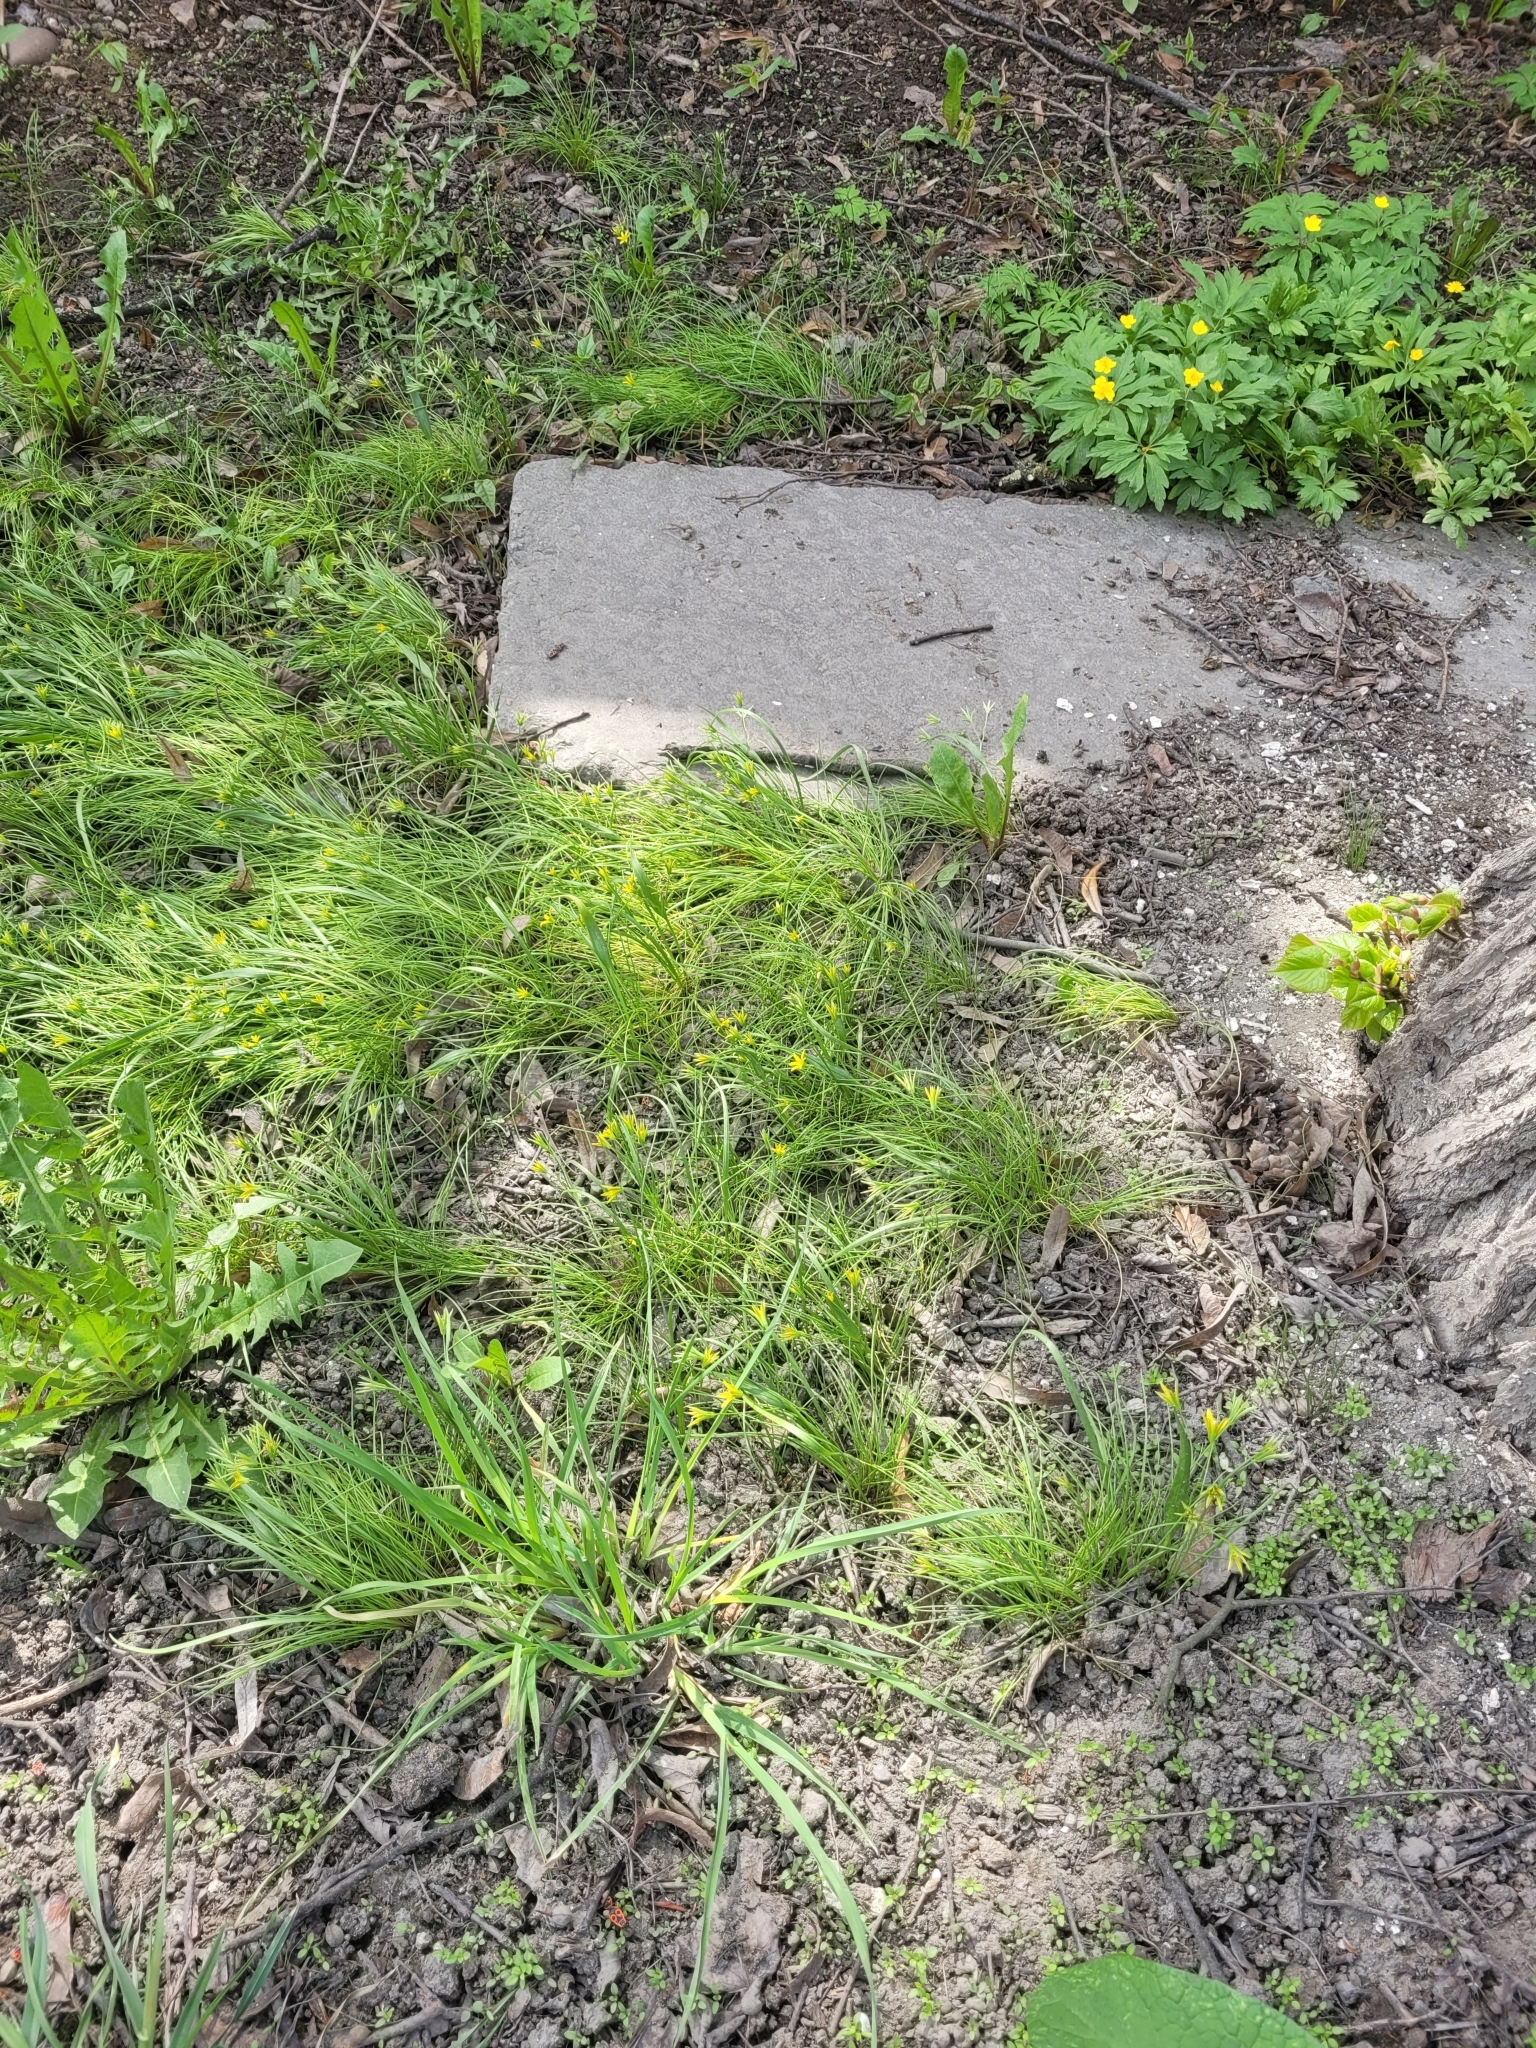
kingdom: Plantae
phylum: Tracheophyta
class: Liliopsida
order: Liliales
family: Liliaceae
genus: Gagea
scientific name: Gagea minima
